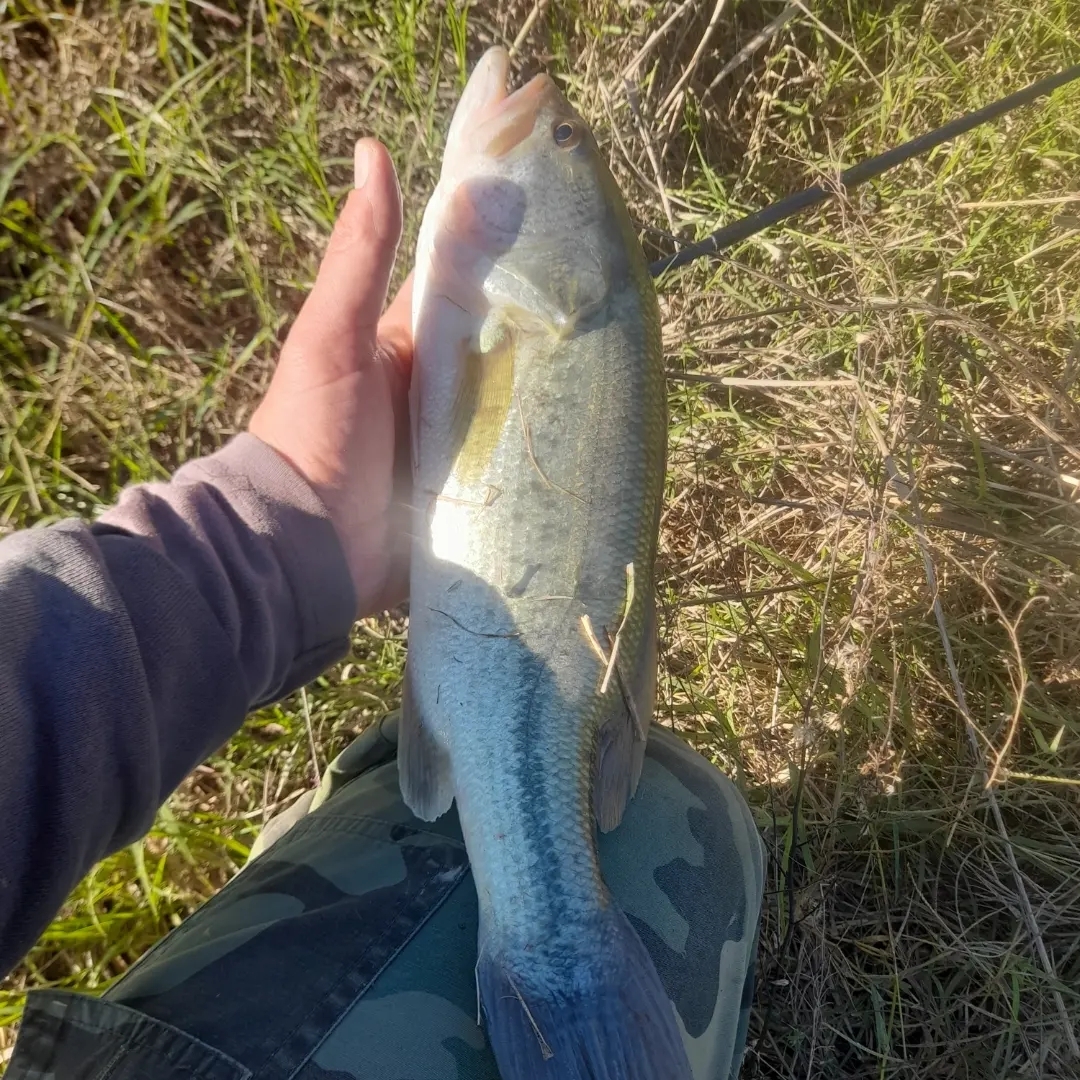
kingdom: Animalia
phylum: Chordata
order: Perciformes
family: Centrarchidae
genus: Micropterus
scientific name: Micropterus
